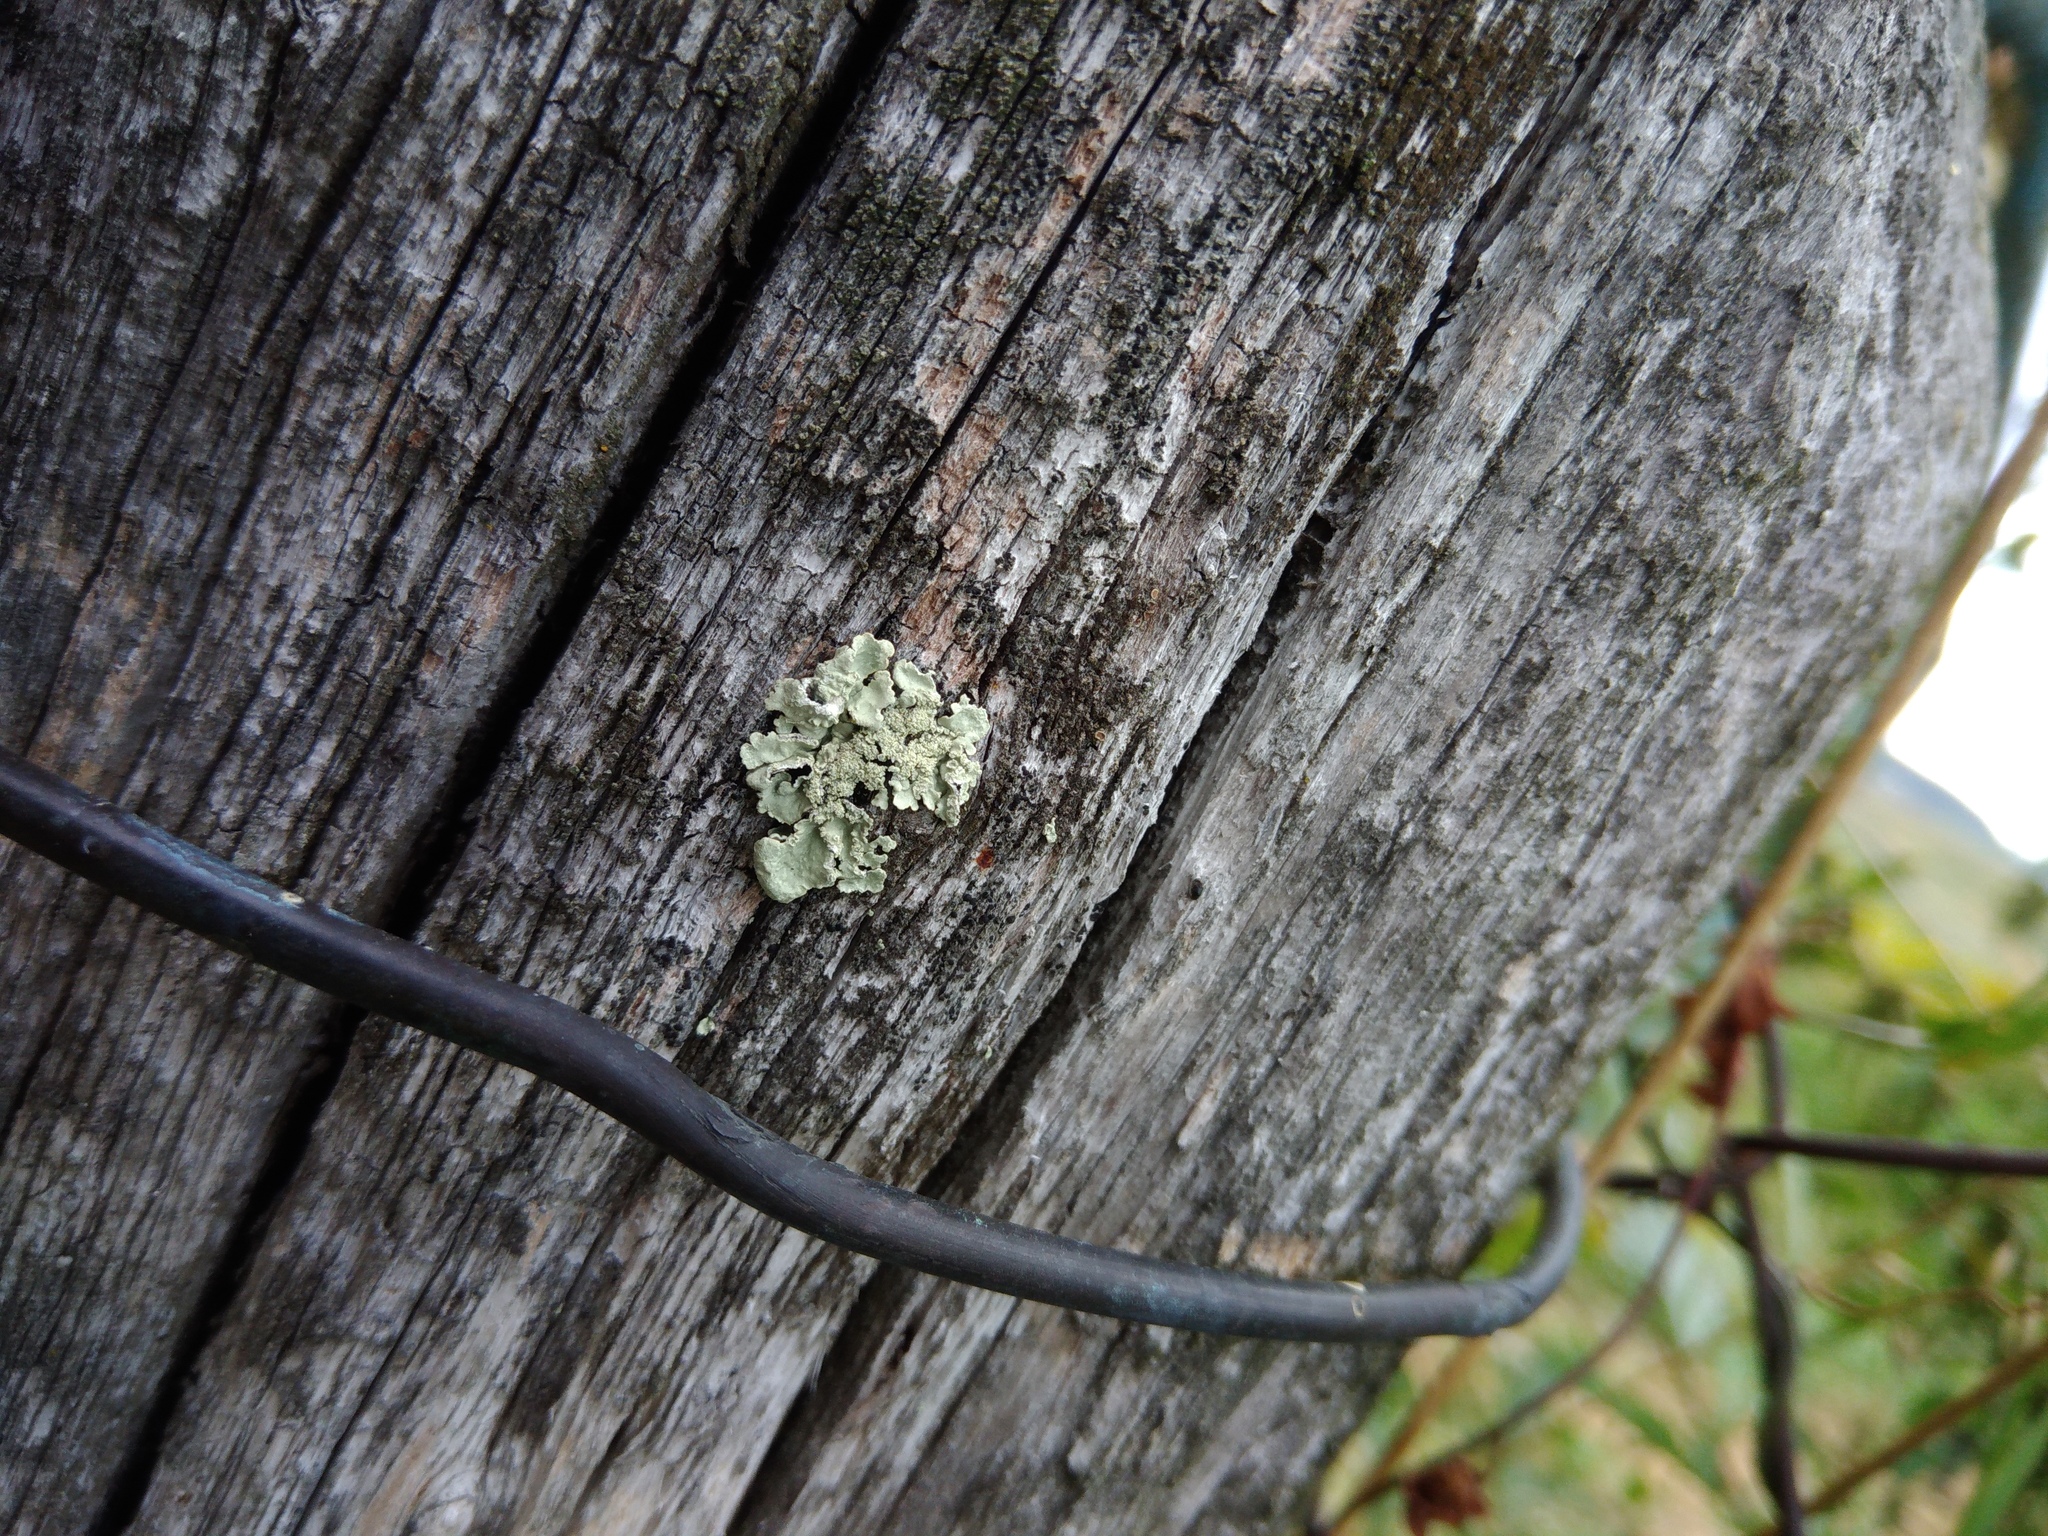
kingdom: Fungi
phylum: Ascomycota
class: Lecanoromycetes
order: Lecanorales
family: Parmeliaceae
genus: Flavoparmelia
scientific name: Flavoparmelia caperata
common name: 40-mile per hour lichen
